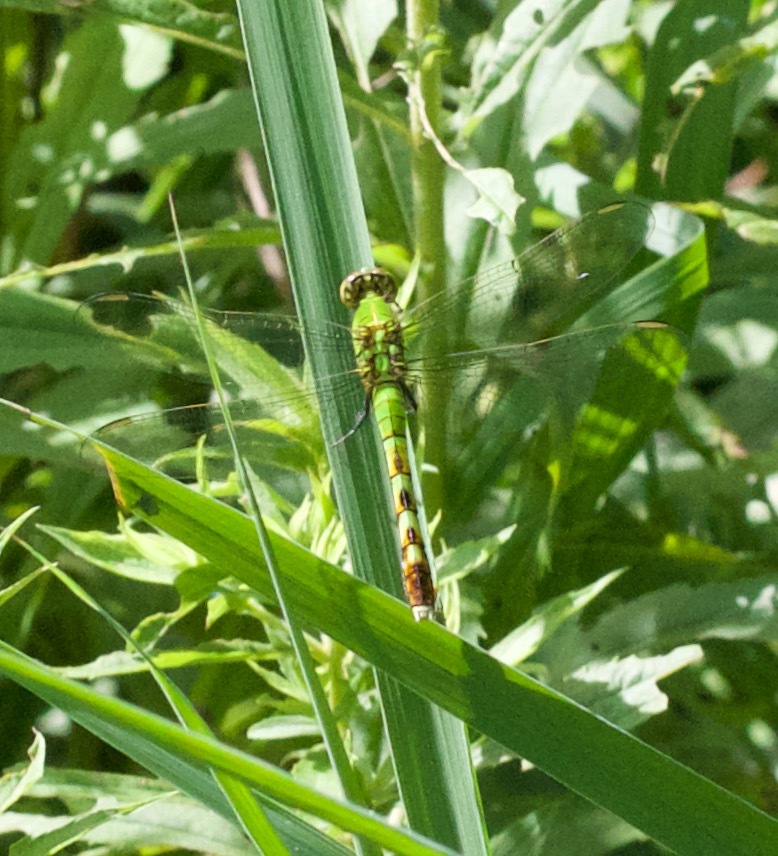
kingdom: Animalia
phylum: Arthropoda
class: Insecta
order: Odonata
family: Libellulidae
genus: Erythemis
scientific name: Erythemis simplicicollis
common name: Eastern pondhawk
